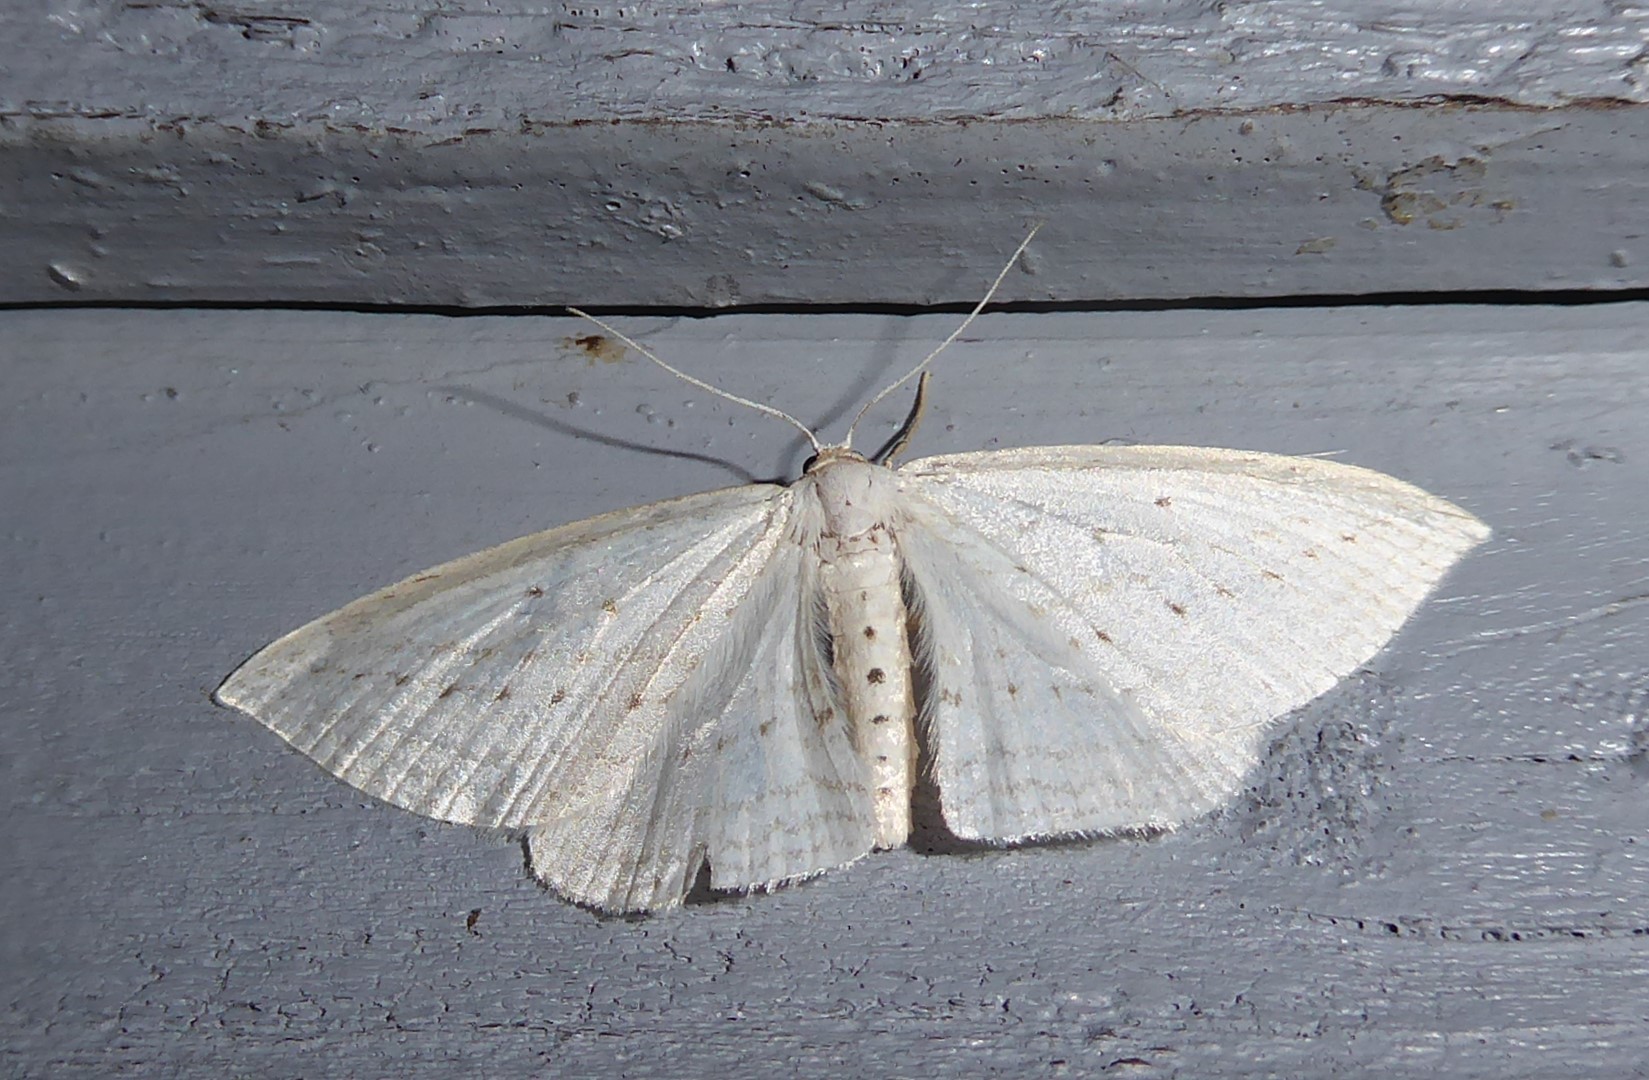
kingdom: Animalia
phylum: Arthropoda
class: Insecta
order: Lepidoptera
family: Geometridae
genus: Orthoclydon
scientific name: Orthoclydon praefectata
